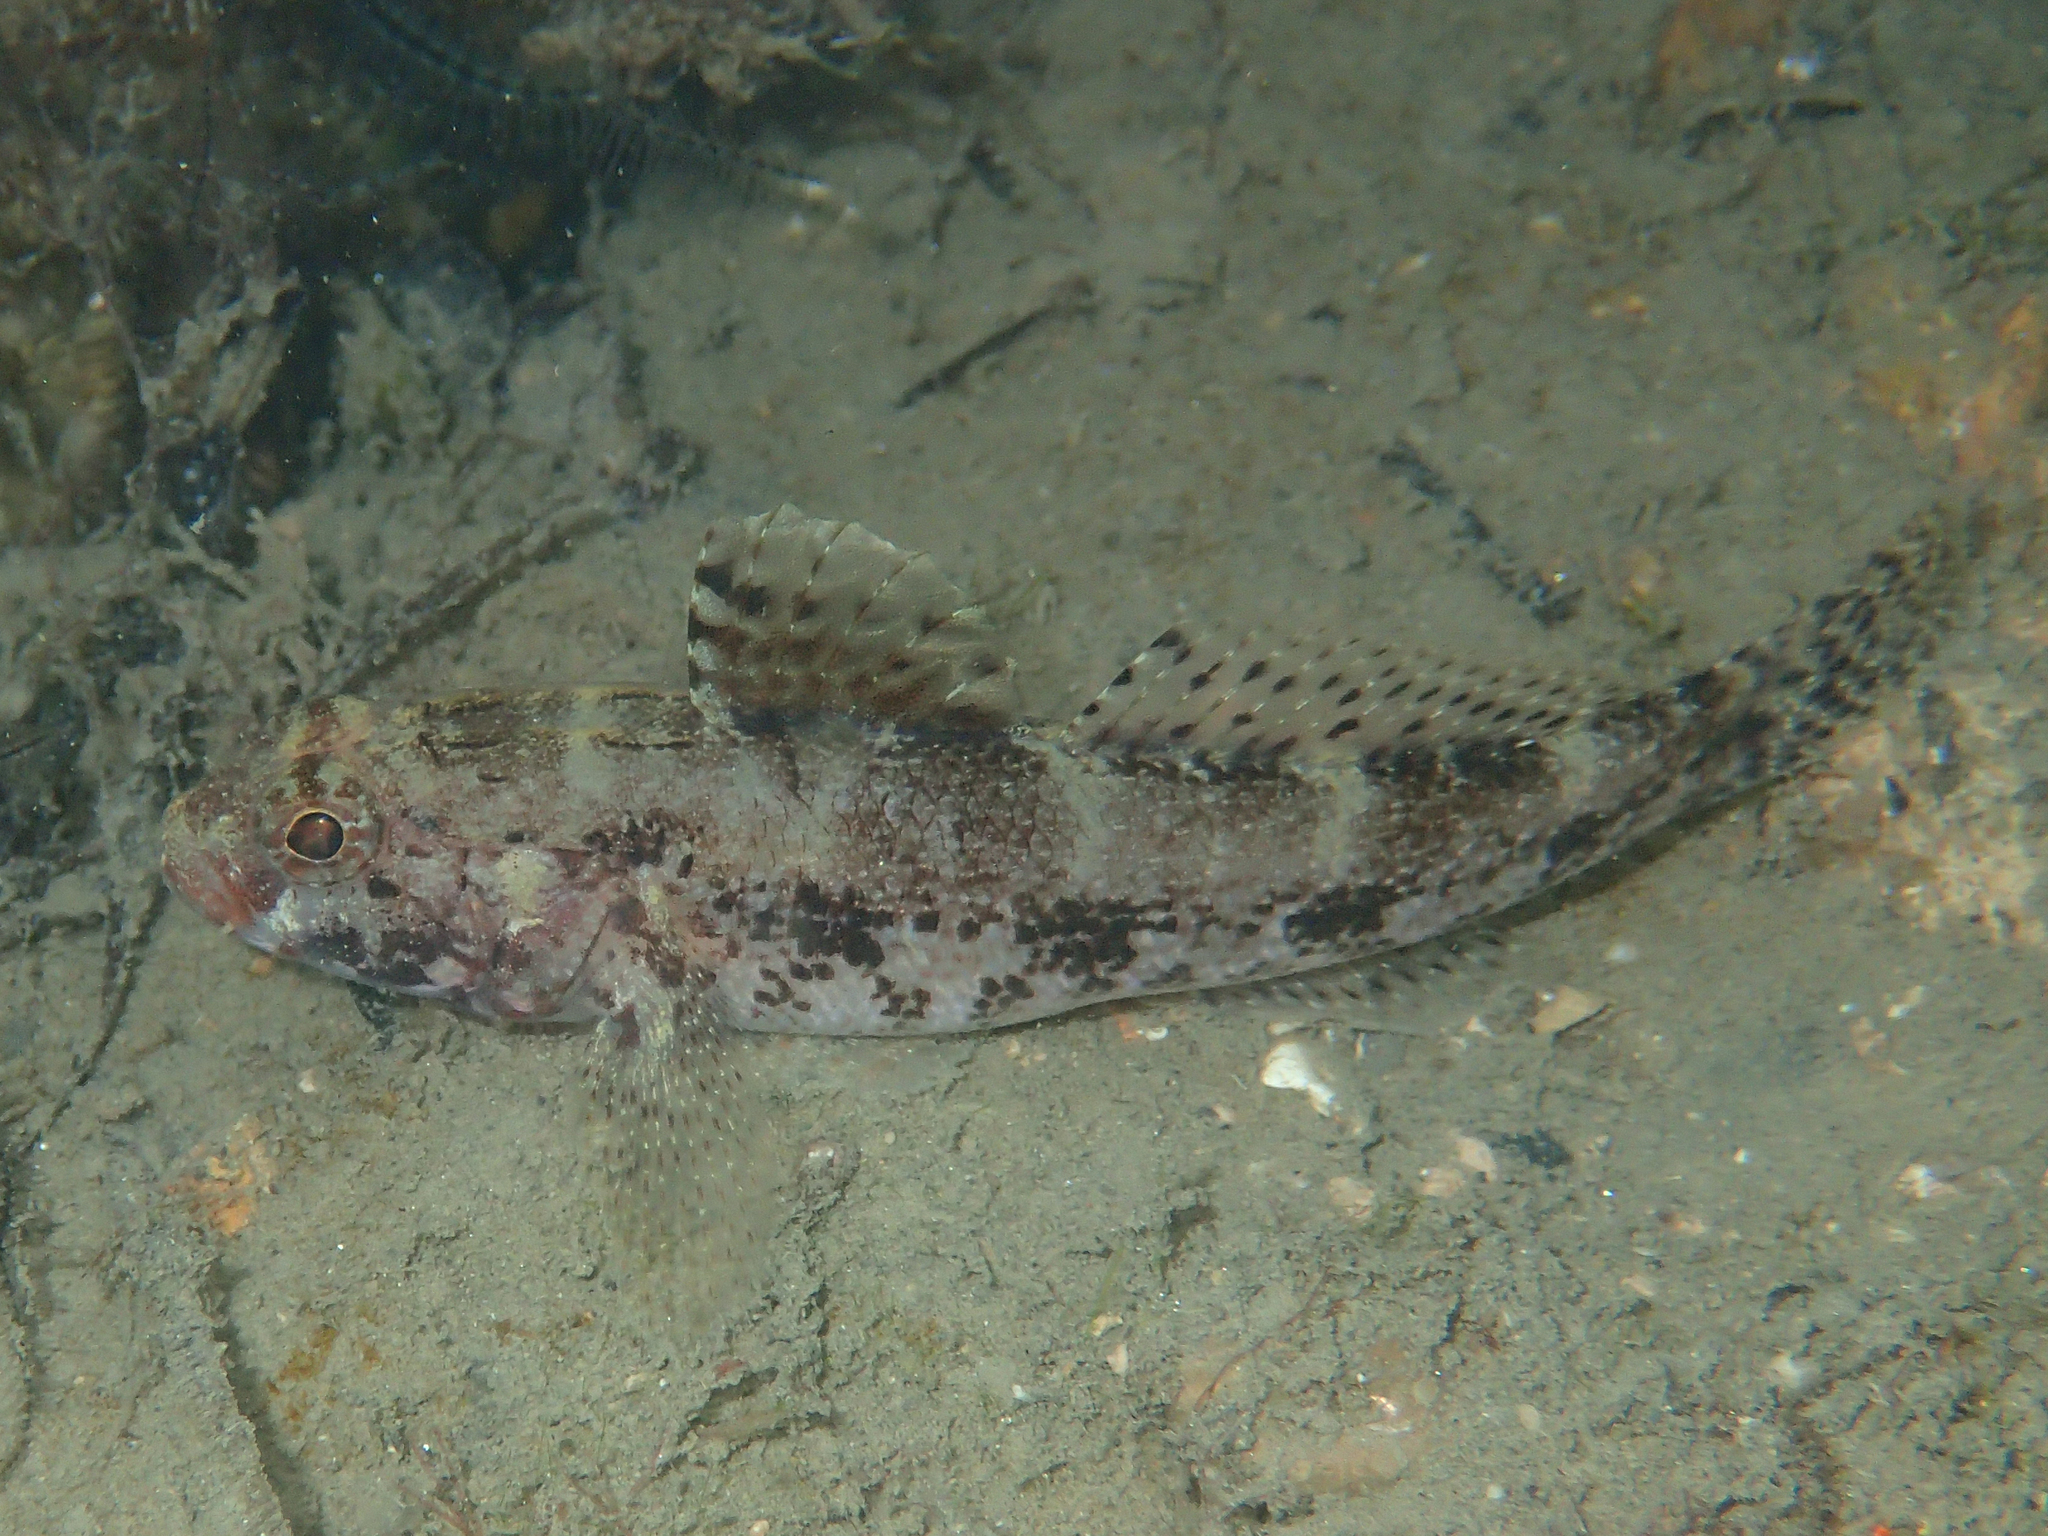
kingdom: Animalia
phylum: Chordata
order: Perciformes
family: Gobiidae
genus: Gobius
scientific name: Gobius cruentatus
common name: Red-mouthed goby
